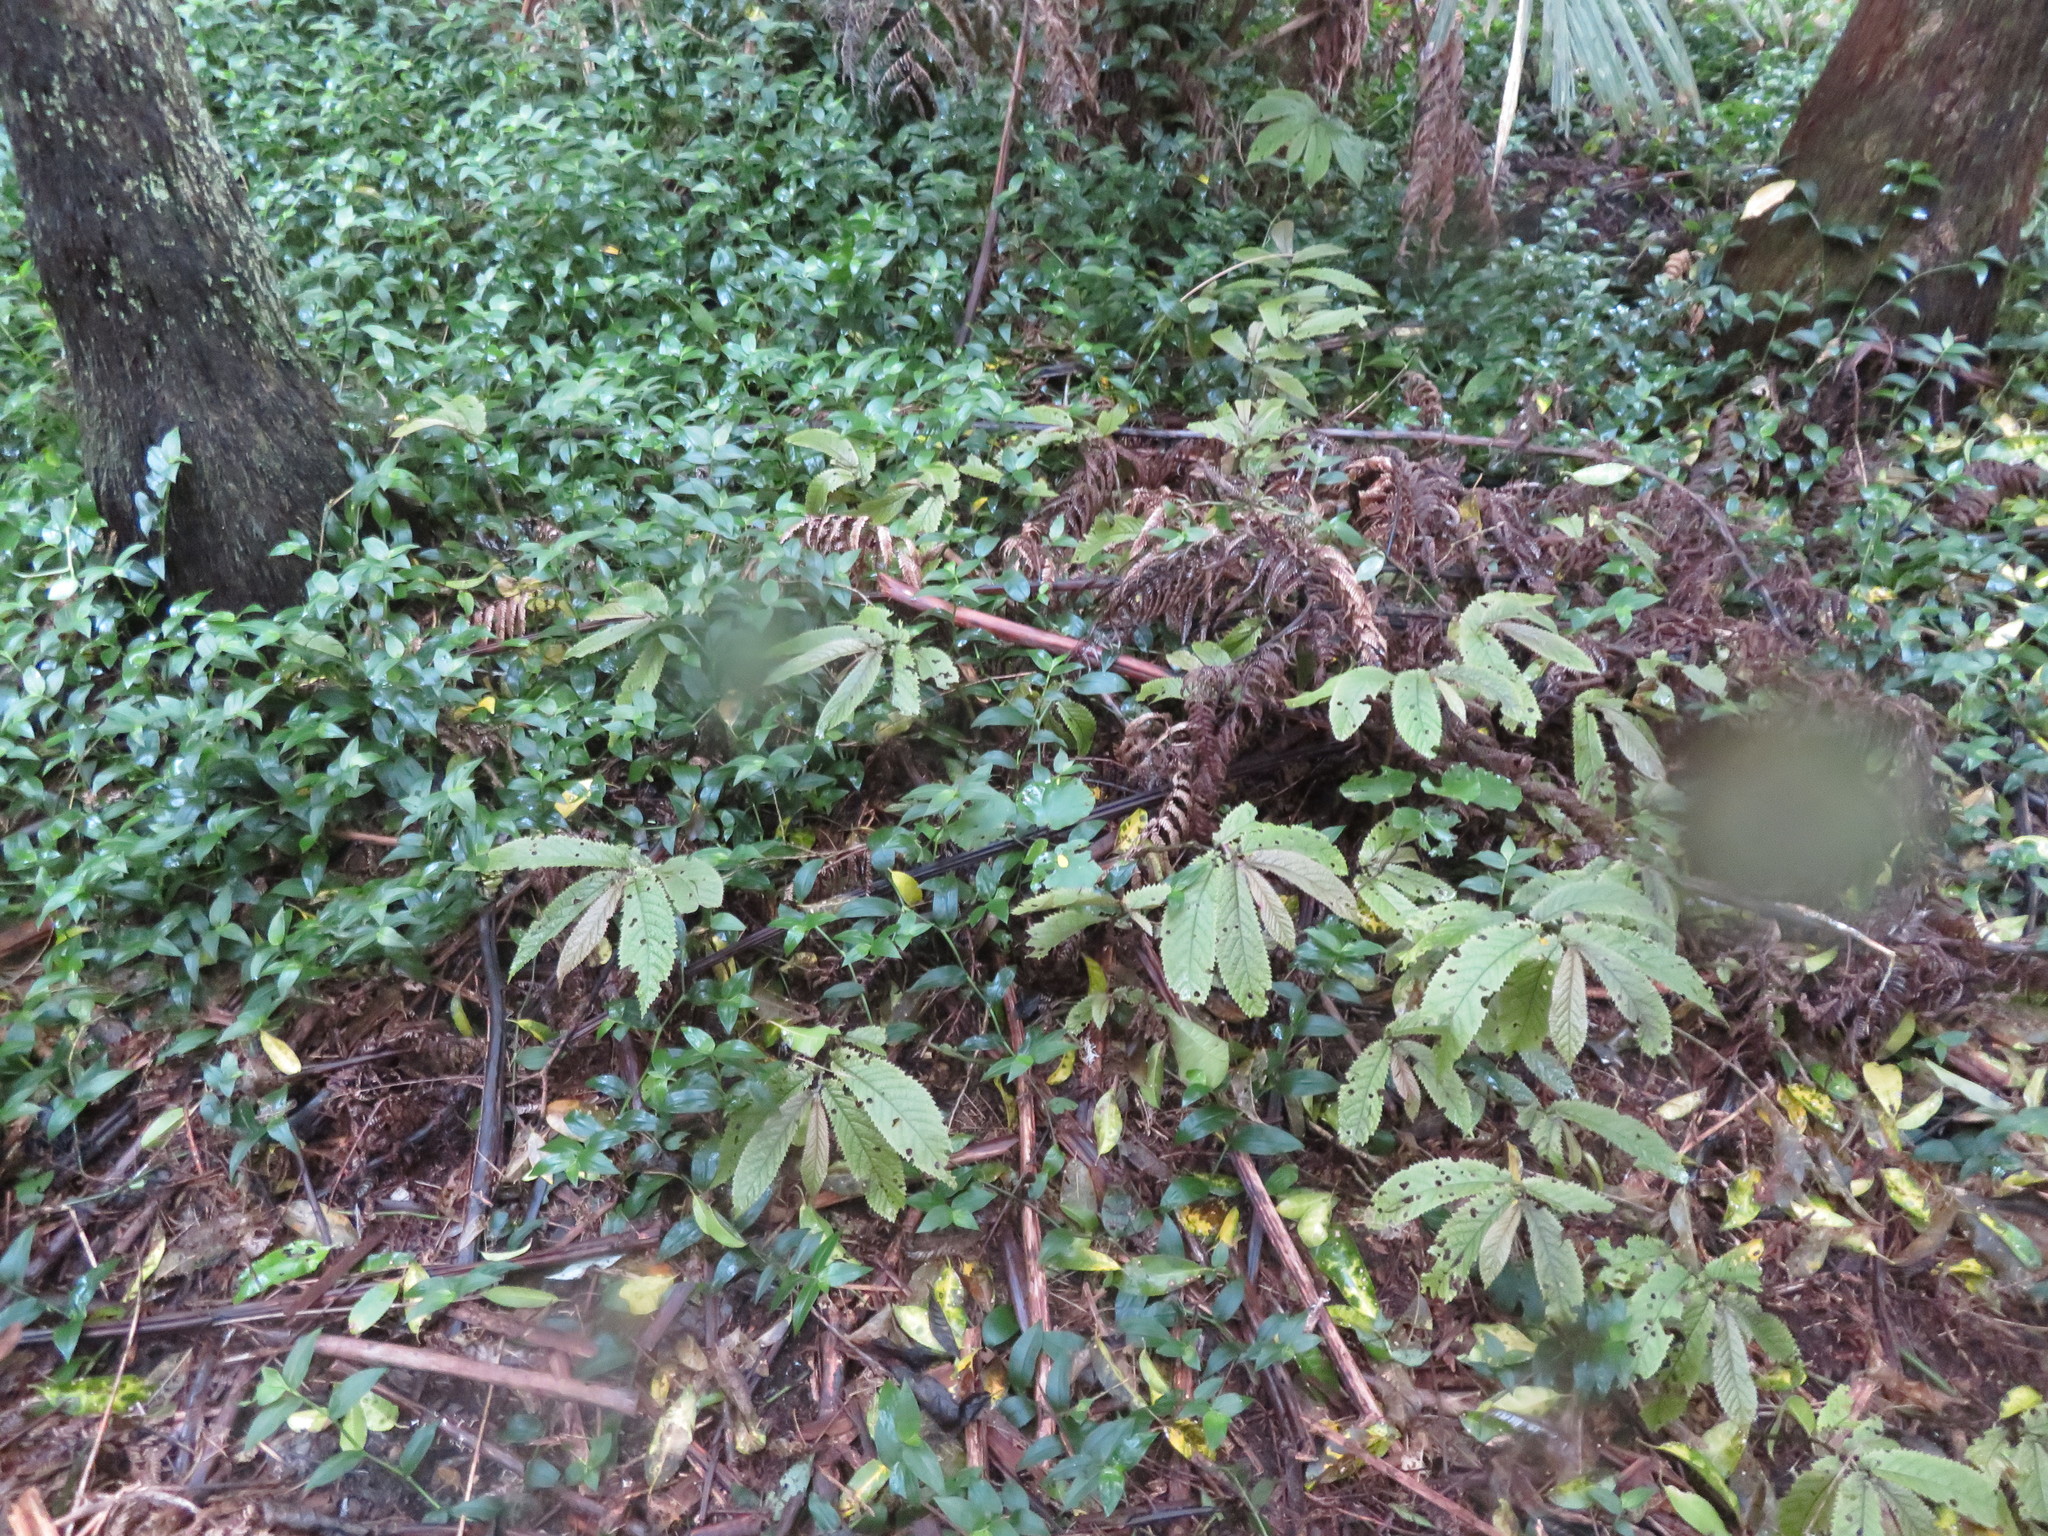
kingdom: Plantae
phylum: Tracheophyta
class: Magnoliopsida
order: Rosales
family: Urticaceae
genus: Elatostema
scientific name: Elatostema rugosum
